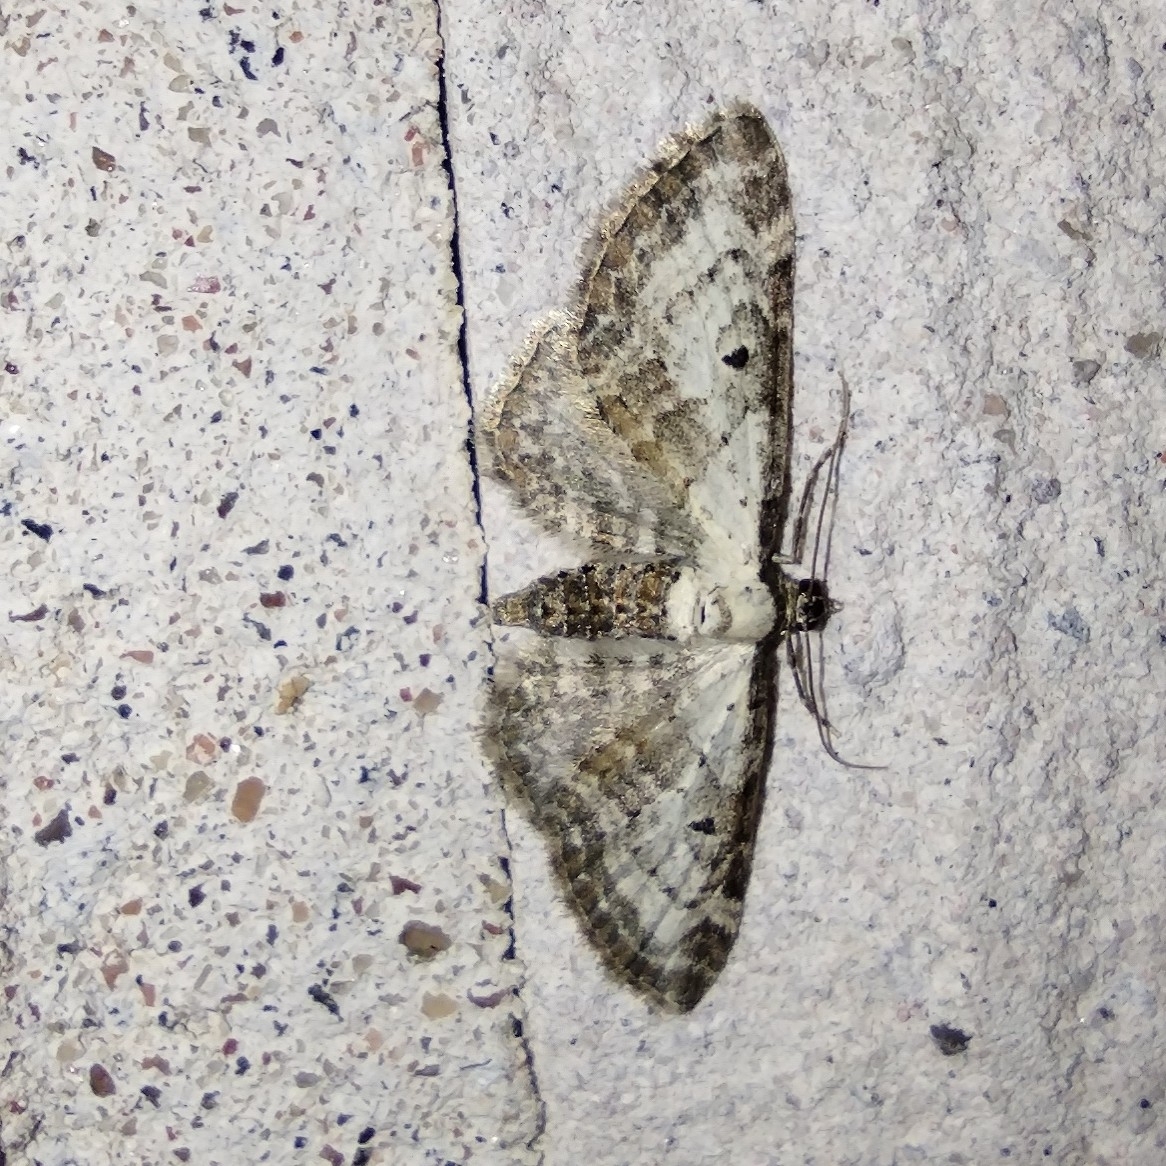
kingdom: Animalia
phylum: Arthropoda
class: Insecta
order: Lepidoptera
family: Geometridae
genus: Eupithecia
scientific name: Eupithecia succenturiata
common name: Bordered pug
